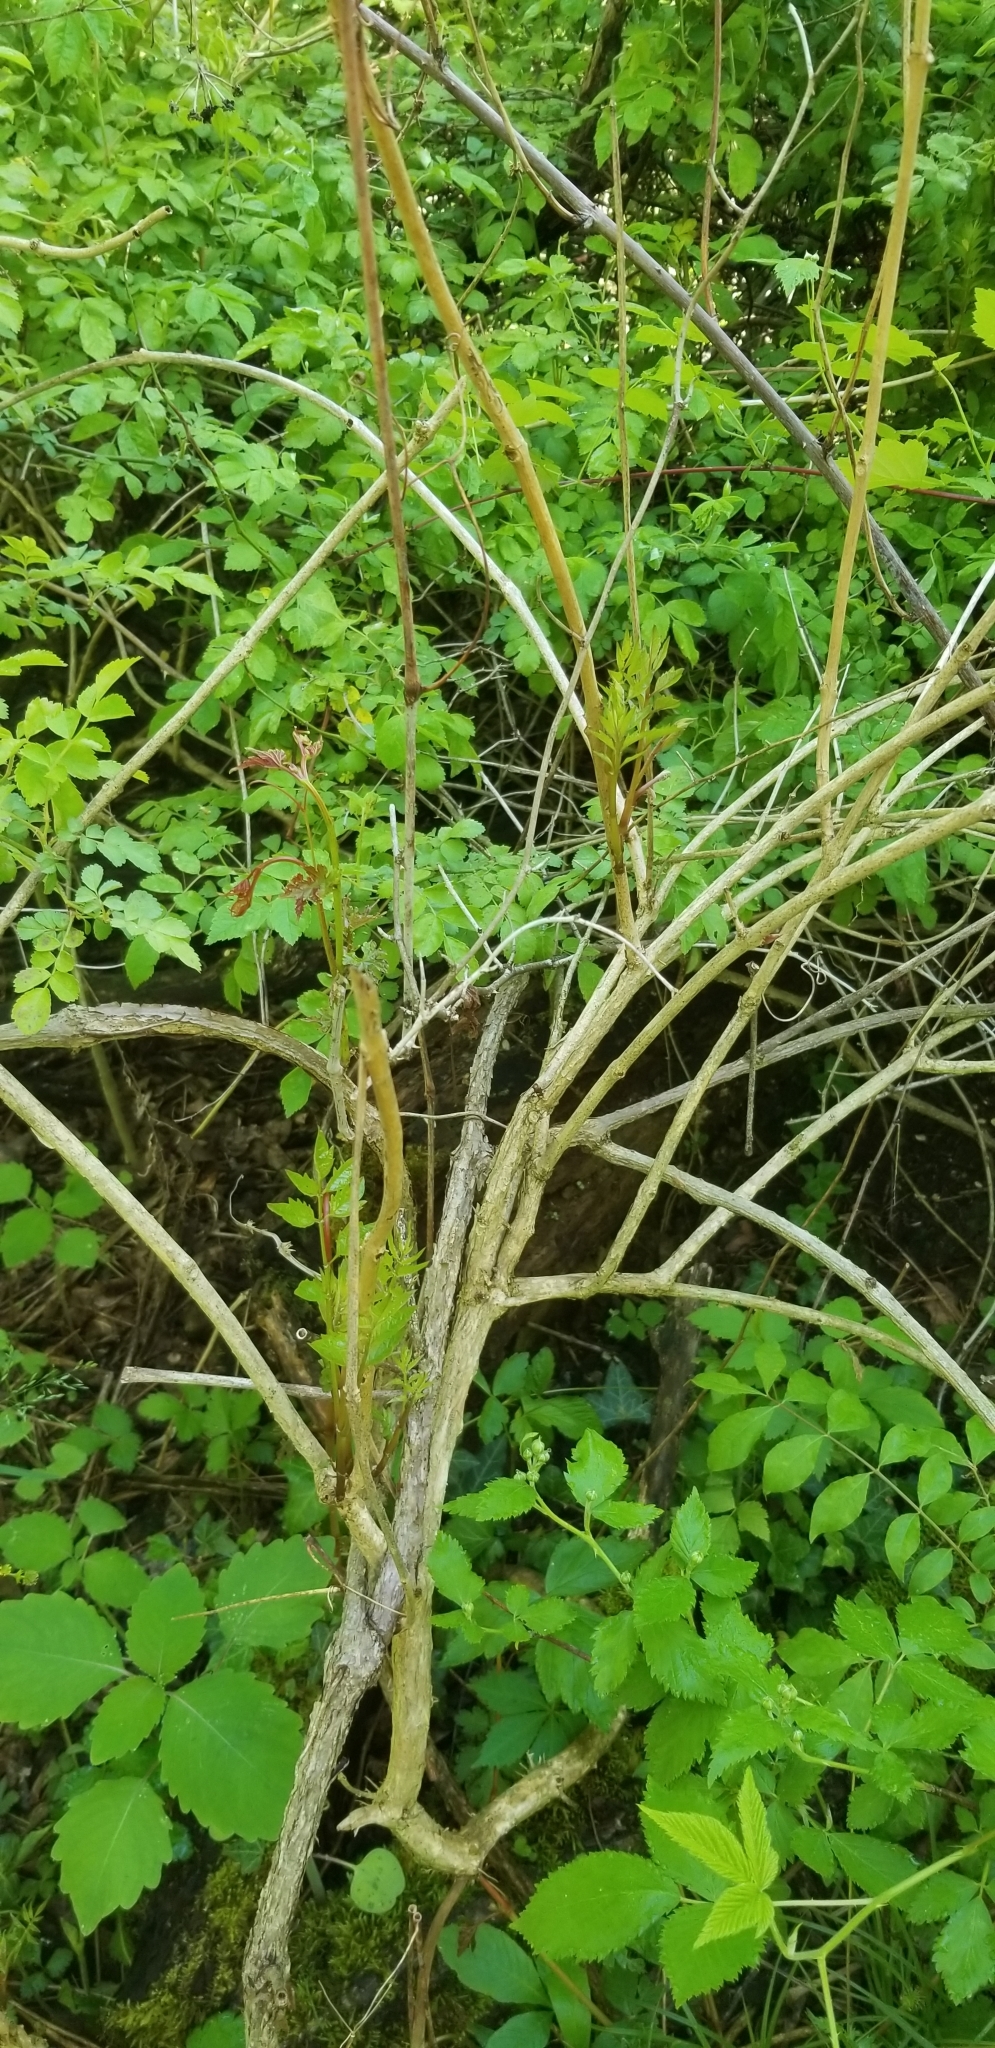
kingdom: Plantae
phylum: Tracheophyta
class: Magnoliopsida
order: Lamiales
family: Bignoniaceae
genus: Campsis
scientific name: Campsis radicans
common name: Trumpet-creeper
